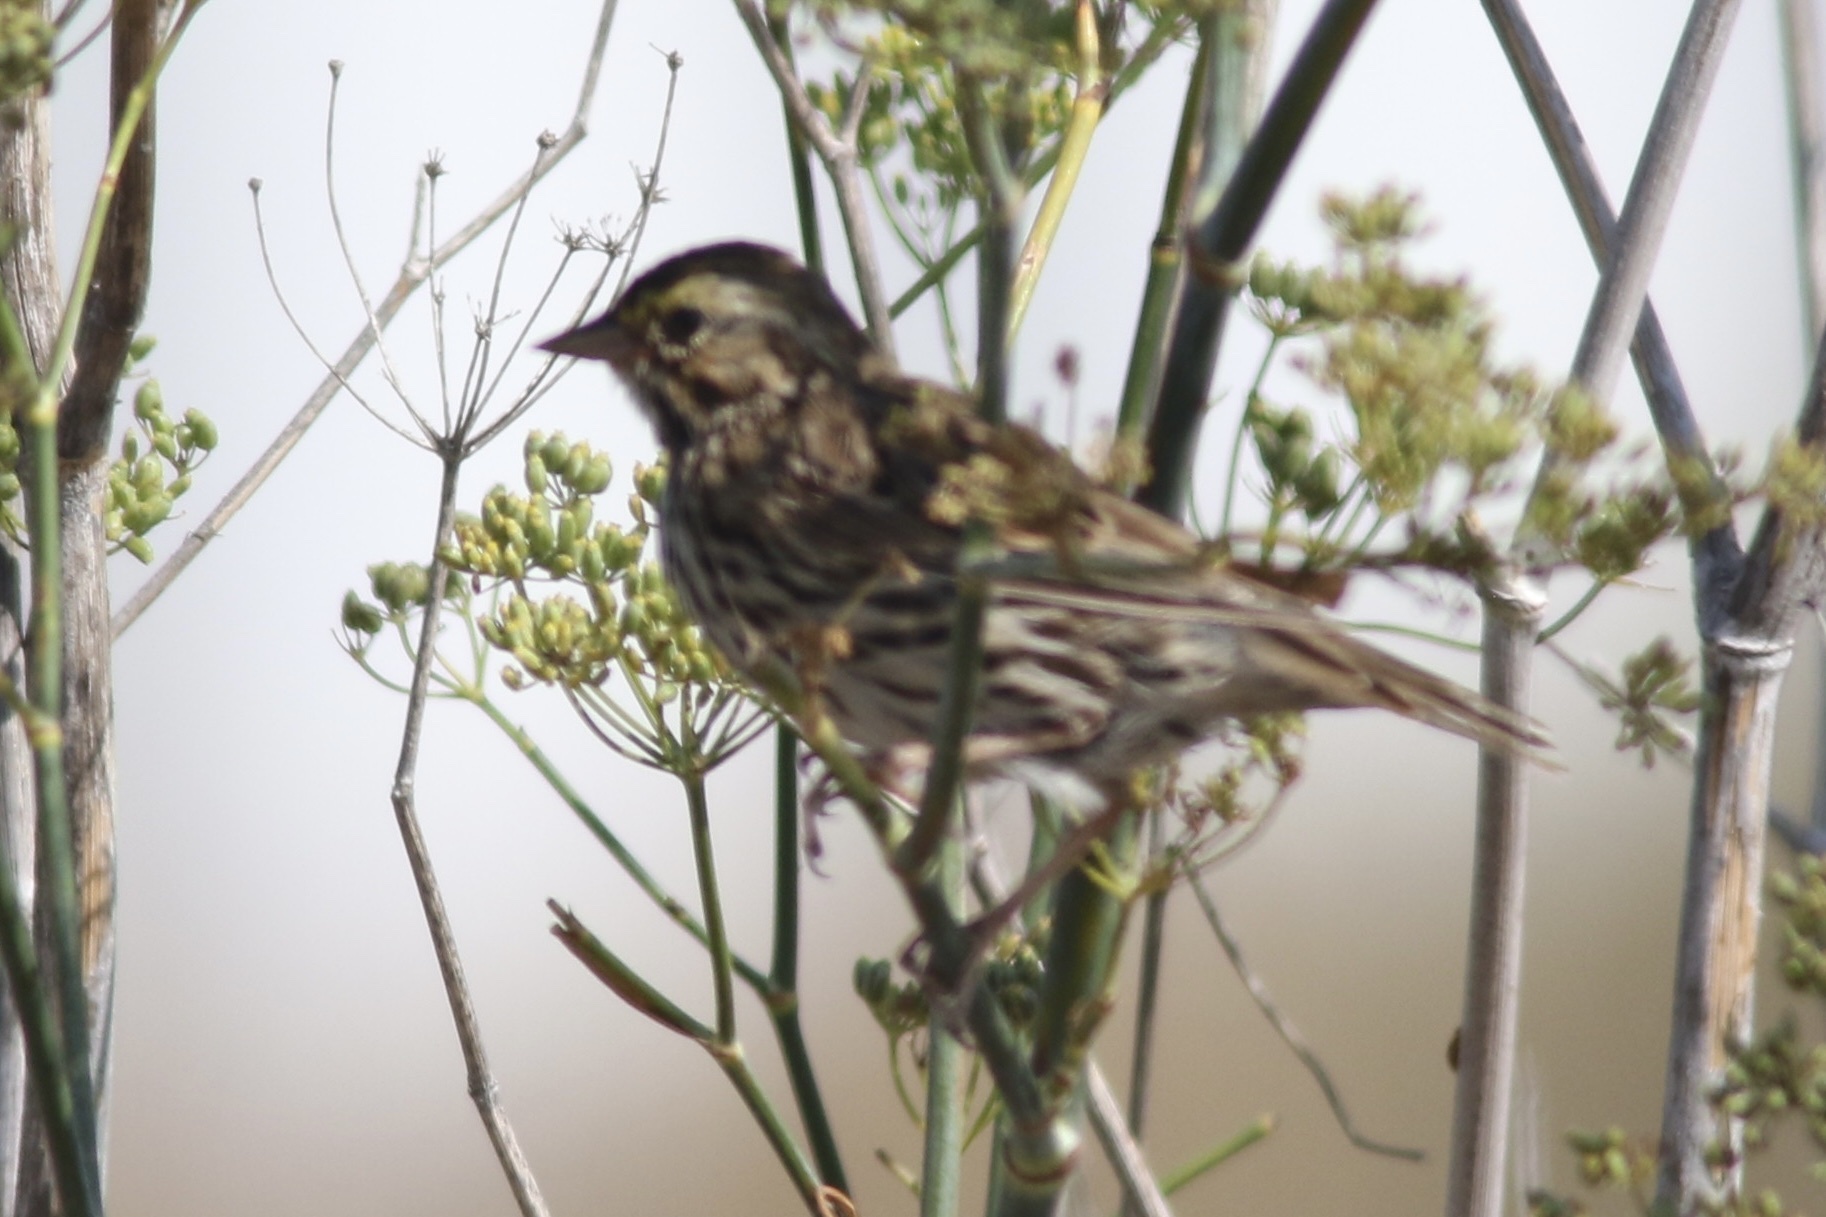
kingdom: Animalia
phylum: Chordata
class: Aves
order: Passeriformes
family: Passerellidae
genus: Passerculus
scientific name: Passerculus sandwichensis
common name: Savannah sparrow
